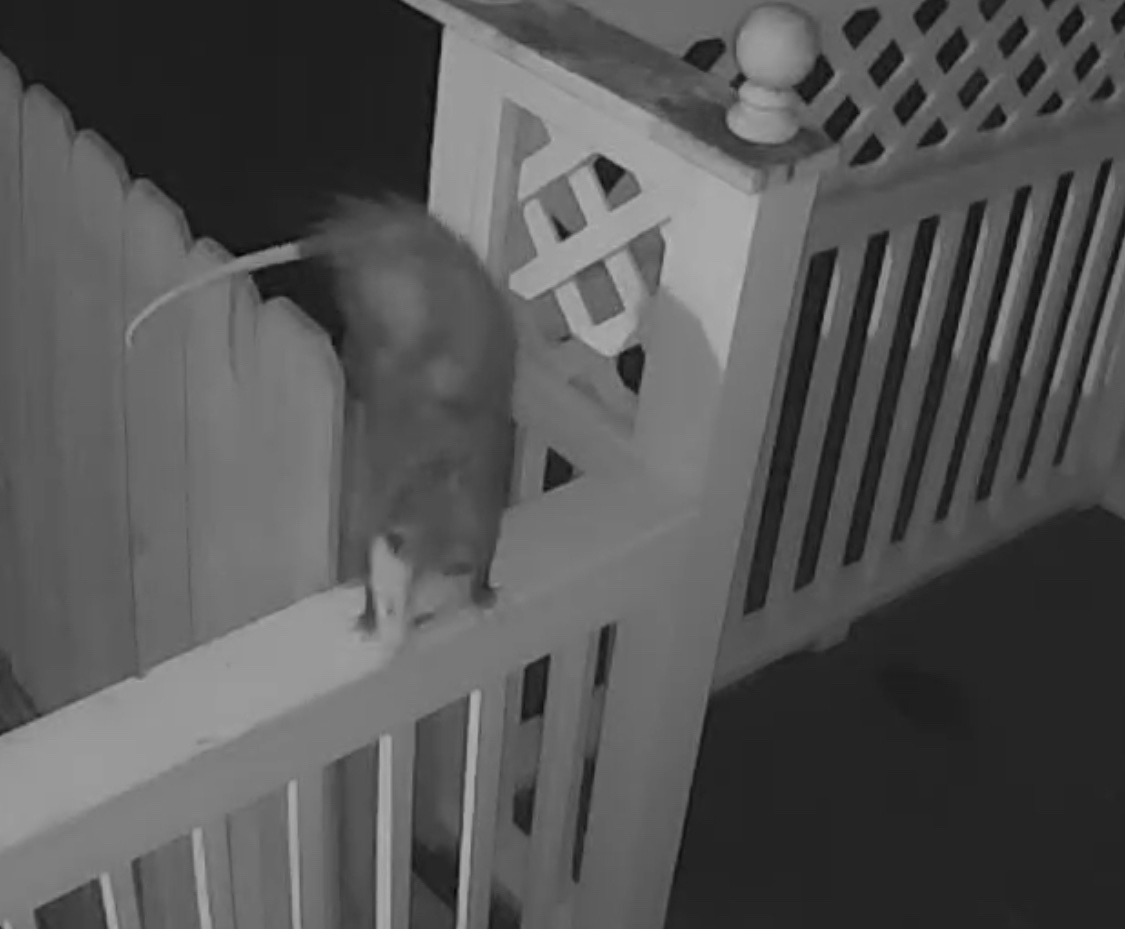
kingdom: Animalia
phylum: Chordata
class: Mammalia
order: Didelphimorphia
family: Didelphidae
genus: Didelphis
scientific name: Didelphis virginiana
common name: Virginia opossum
